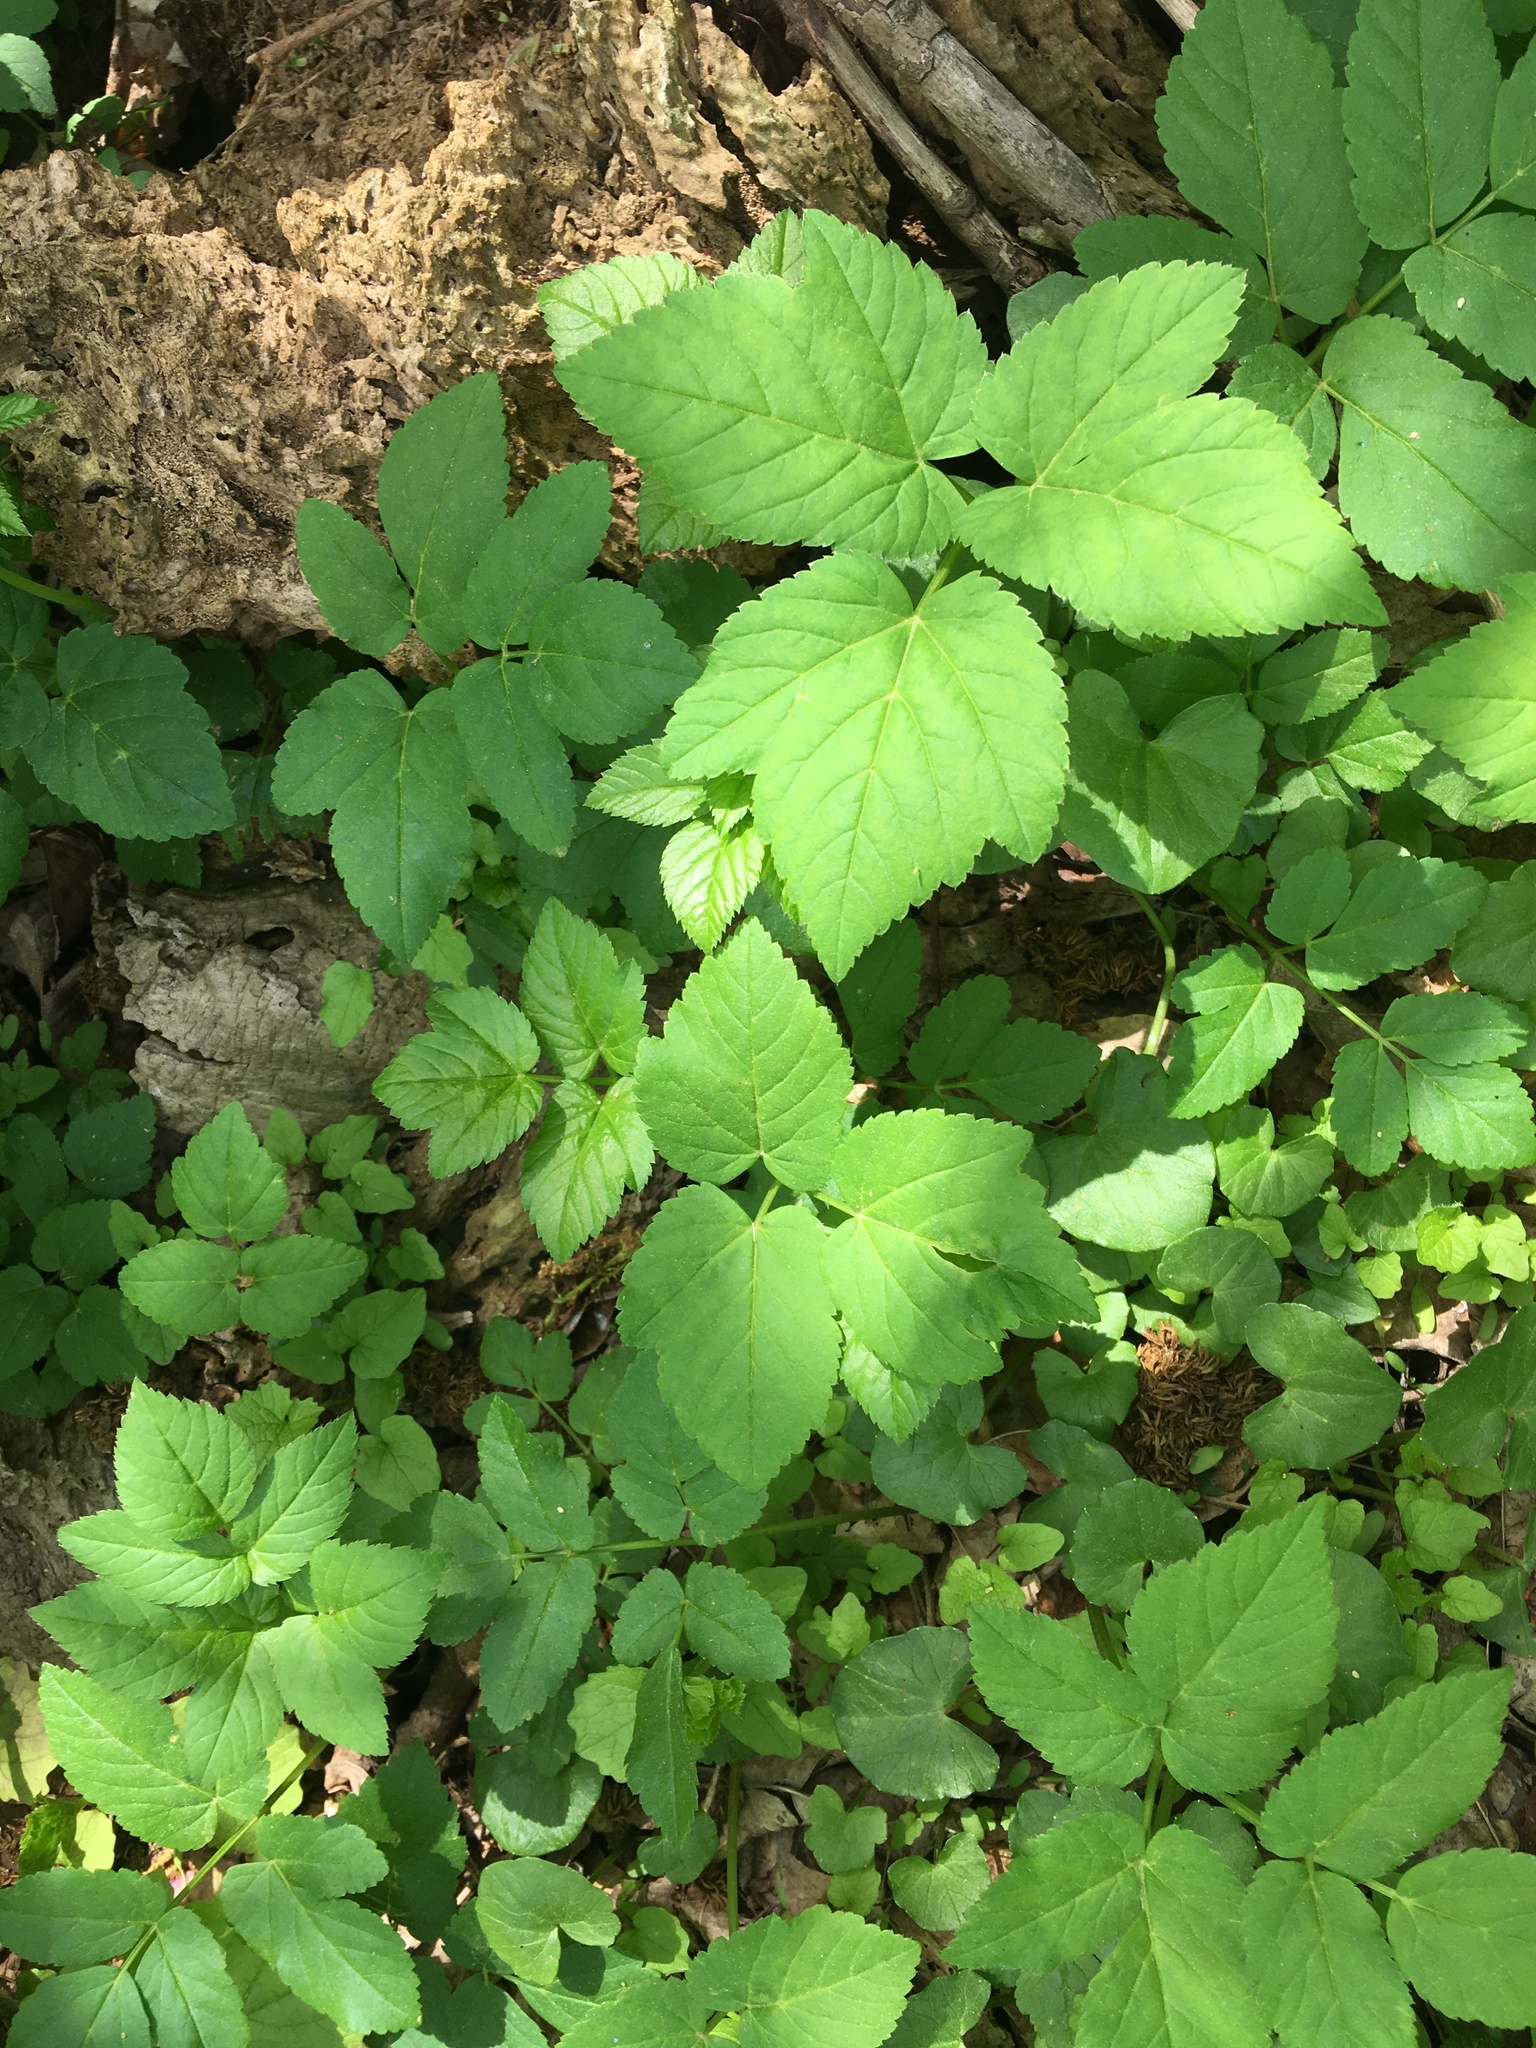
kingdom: Plantae
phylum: Tracheophyta
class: Magnoliopsida
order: Apiales
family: Apiaceae
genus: Aegopodium
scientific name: Aegopodium podagraria
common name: Ground-elder
